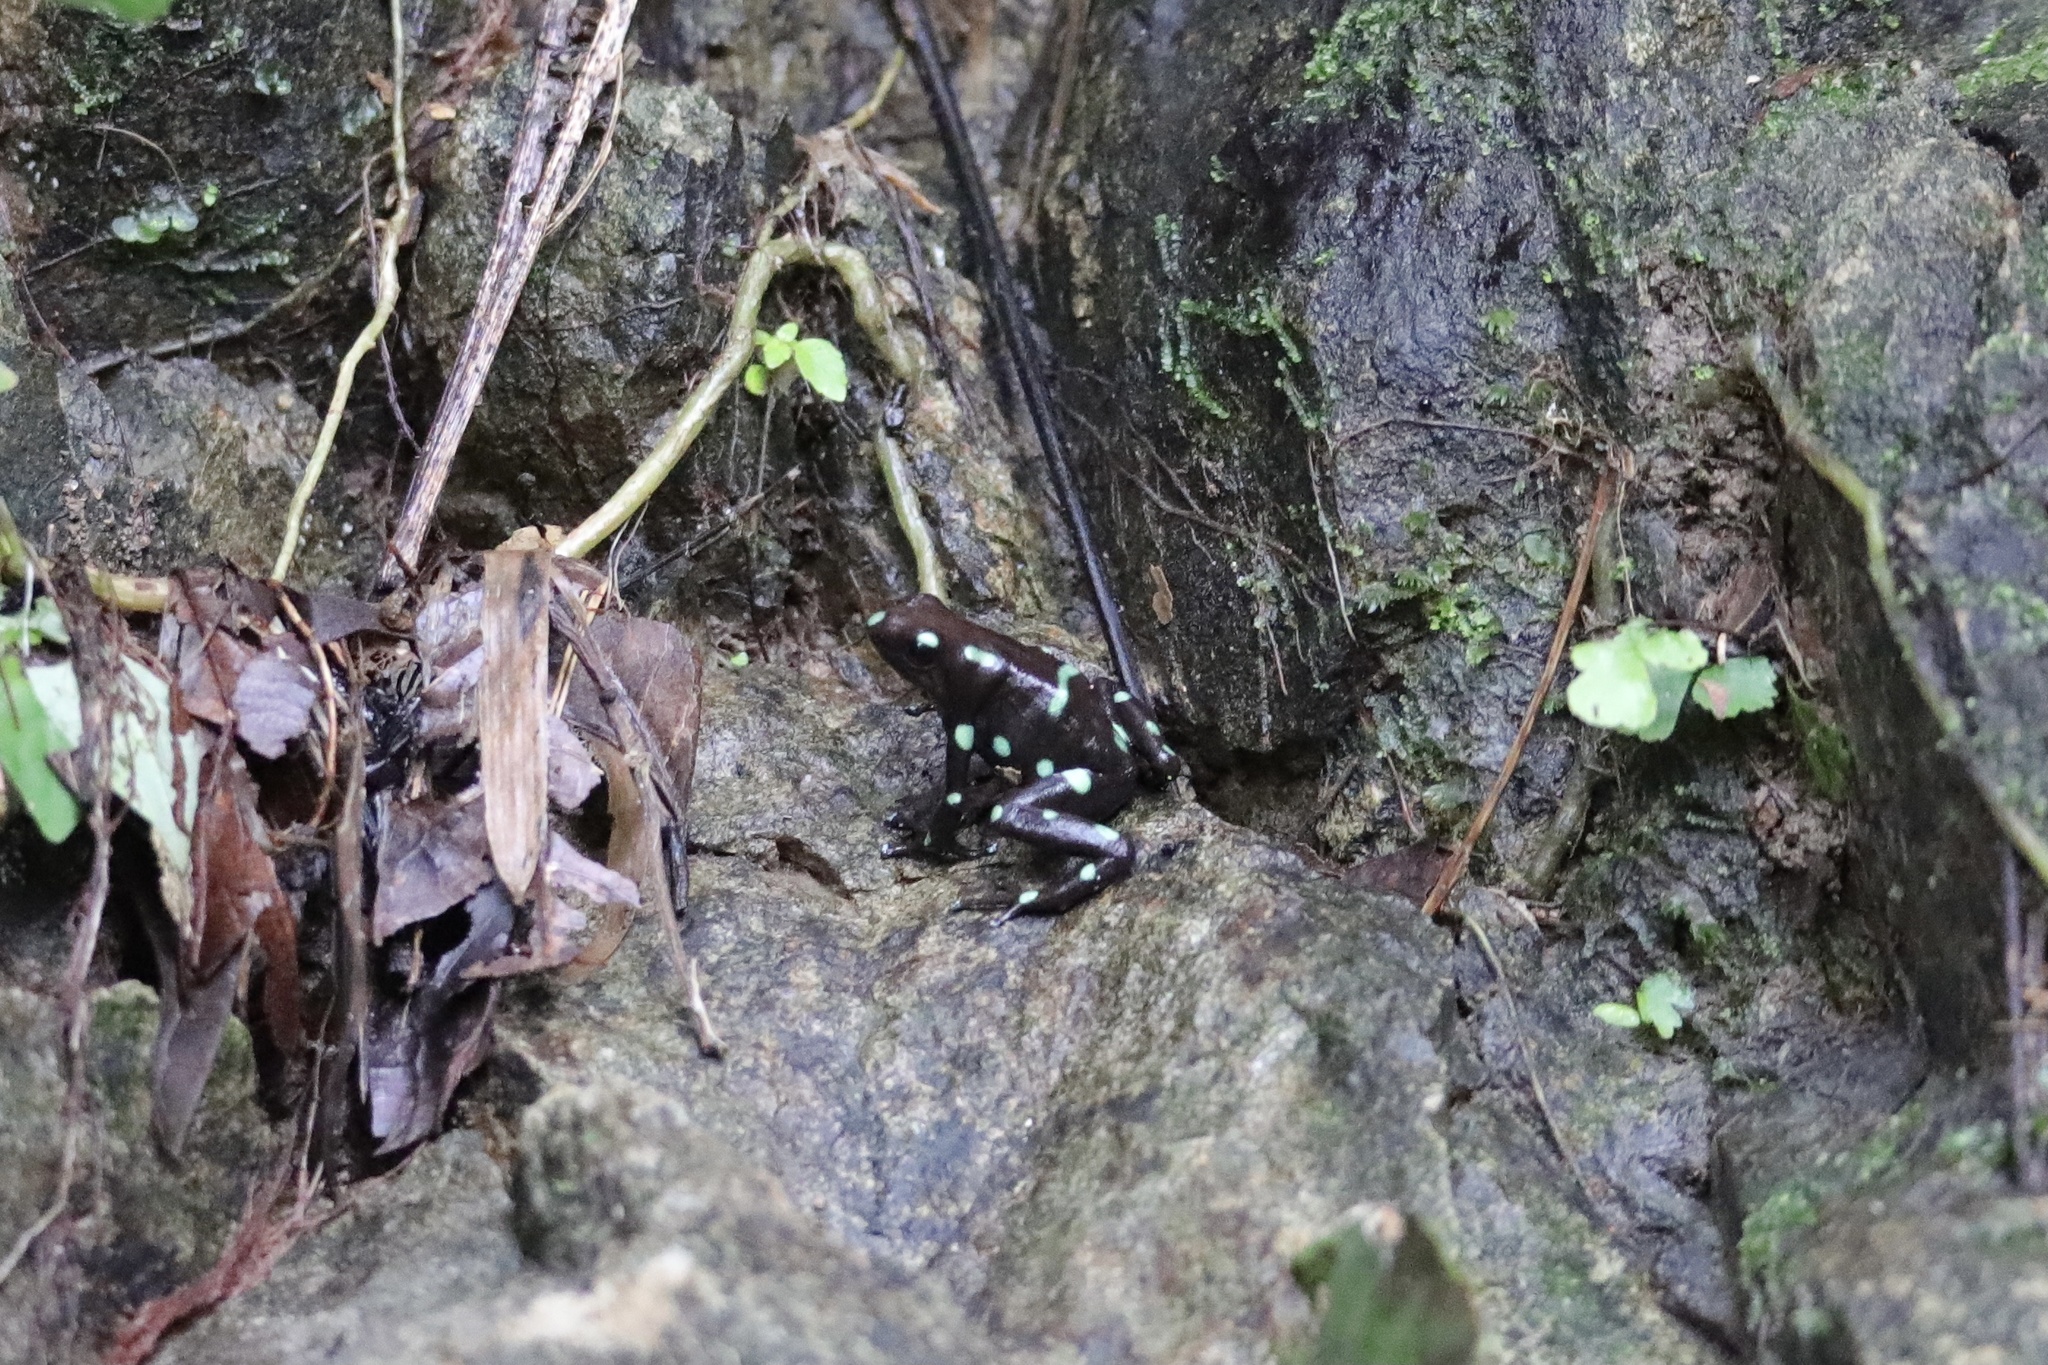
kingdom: Animalia
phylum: Chordata
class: Amphibia
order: Anura
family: Dendrobatidae
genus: Dendrobates
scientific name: Dendrobates auratus
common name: Green and black poison dart frog
